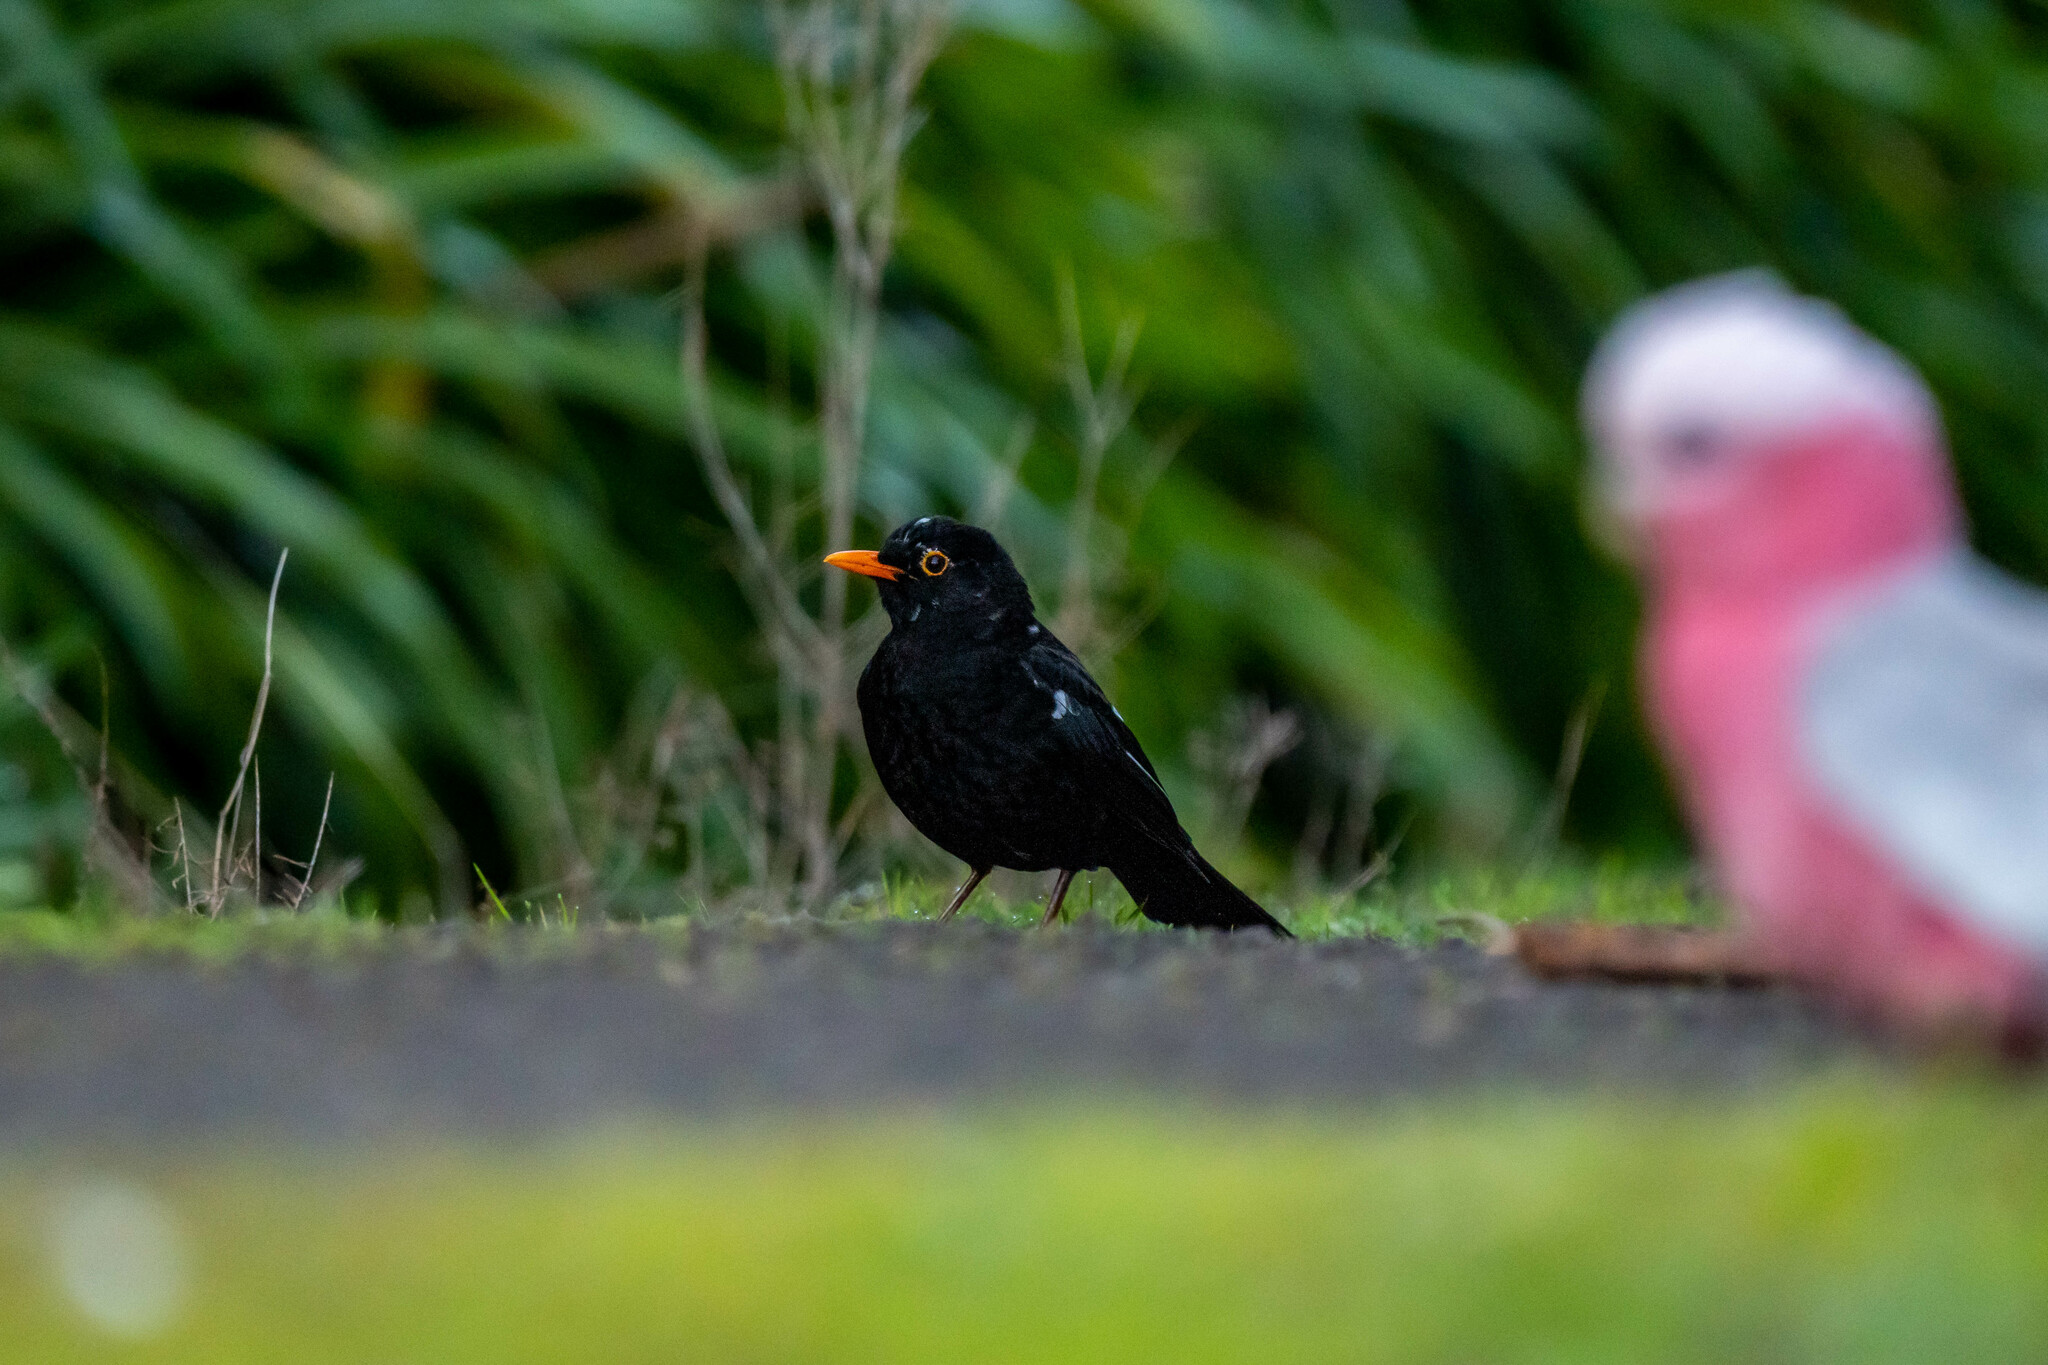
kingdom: Animalia
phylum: Chordata
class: Aves
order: Passeriformes
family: Turdidae
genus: Turdus
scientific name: Turdus merula
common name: Common blackbird
